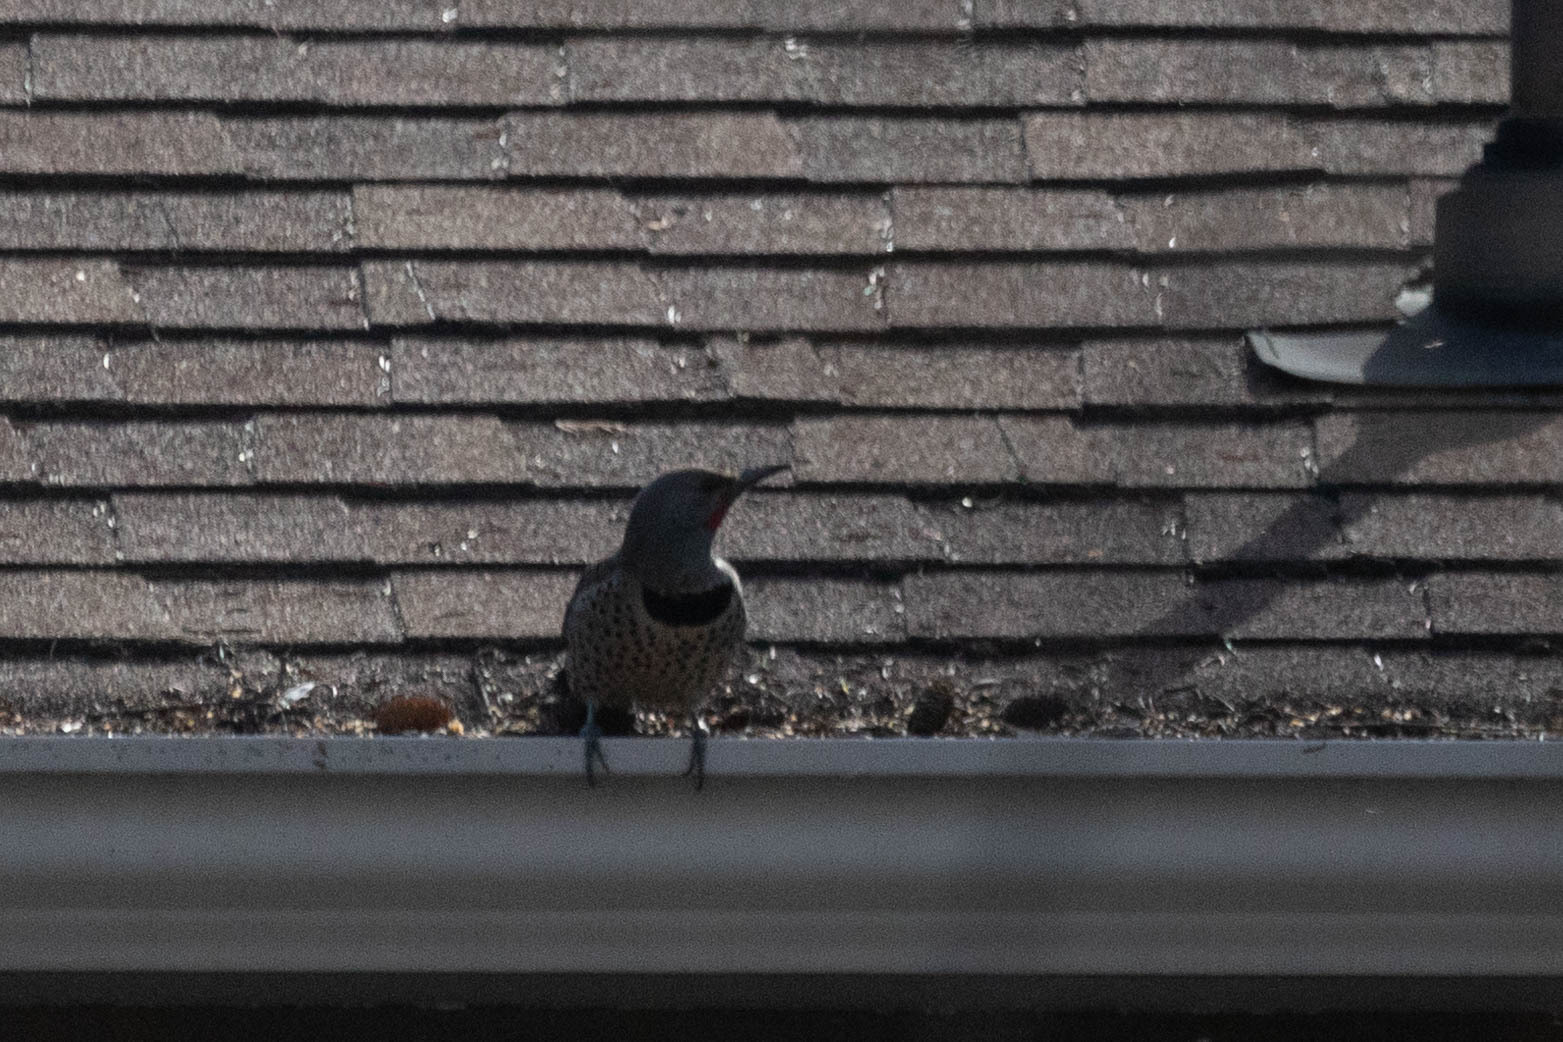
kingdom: Animalia
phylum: Chordata
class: Aves
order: Piciformes
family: Picidae
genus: Colaptes
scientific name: Colaptes auratus
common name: Northern flicker
